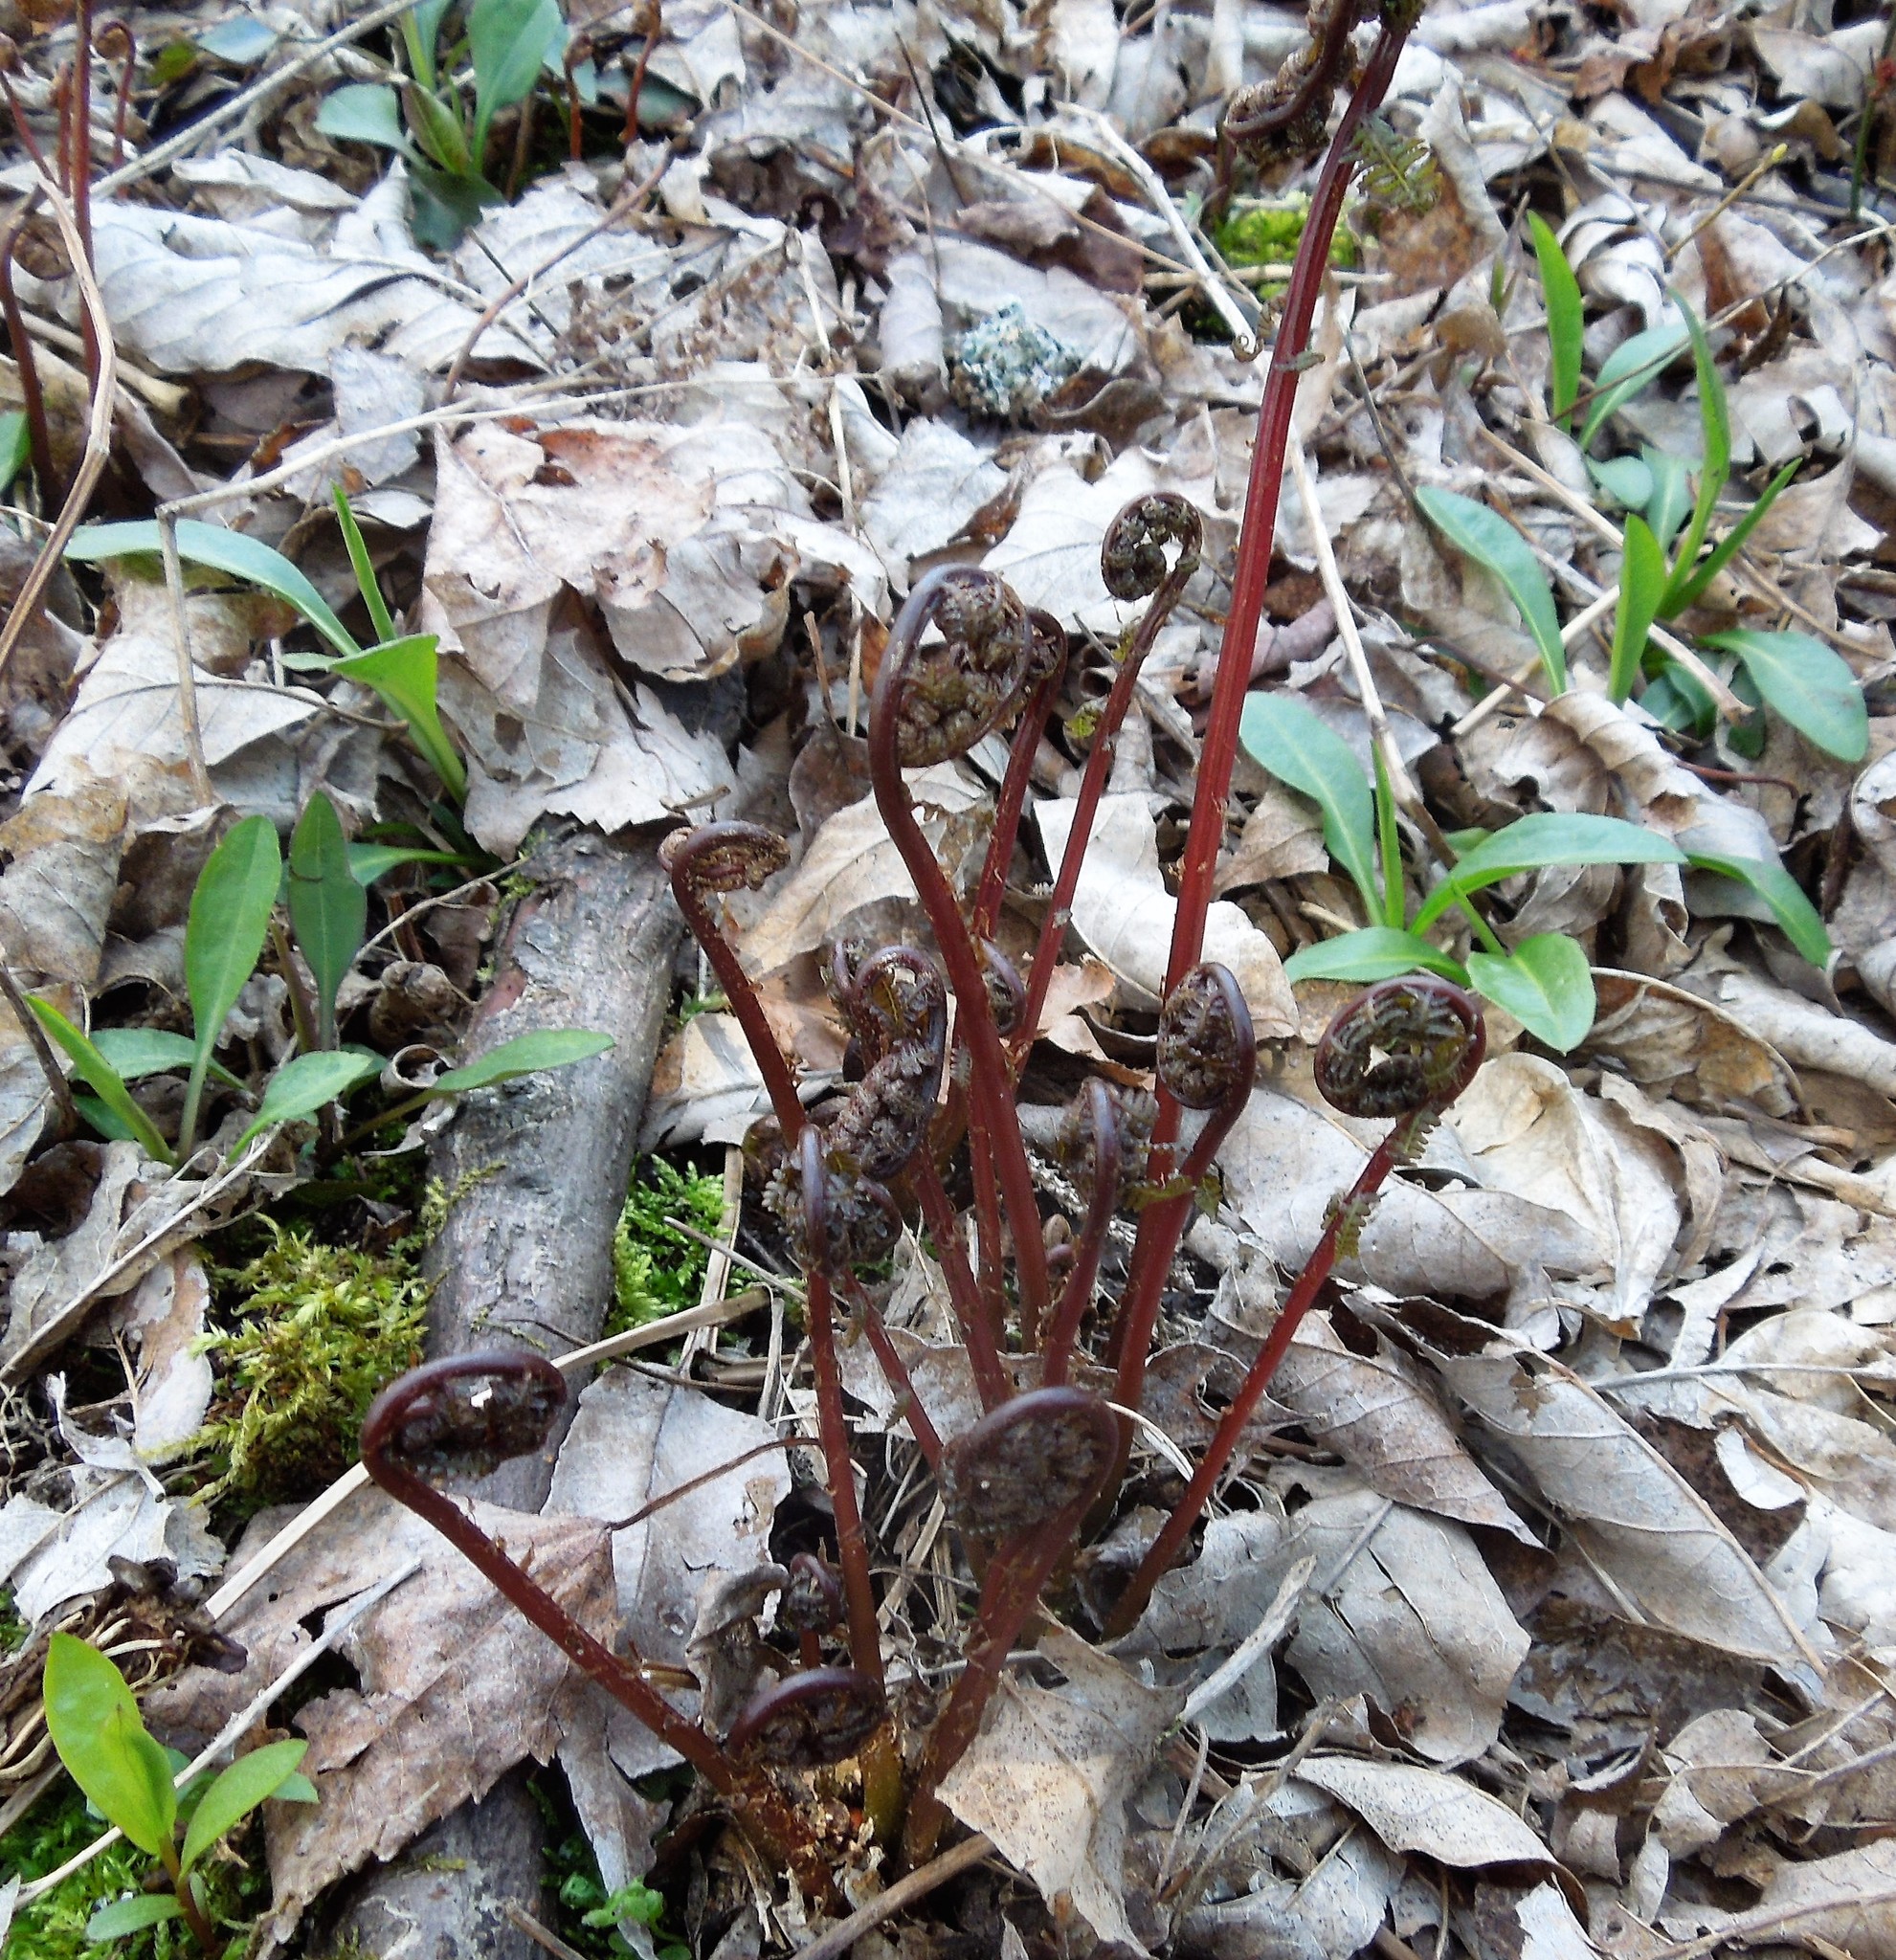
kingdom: Plantae
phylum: Tracheophyta
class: Polypodiopsida
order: Polypodiales
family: Athyriaceae
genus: Athyrium
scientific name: Athyrium angustum
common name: Northern lady fern
